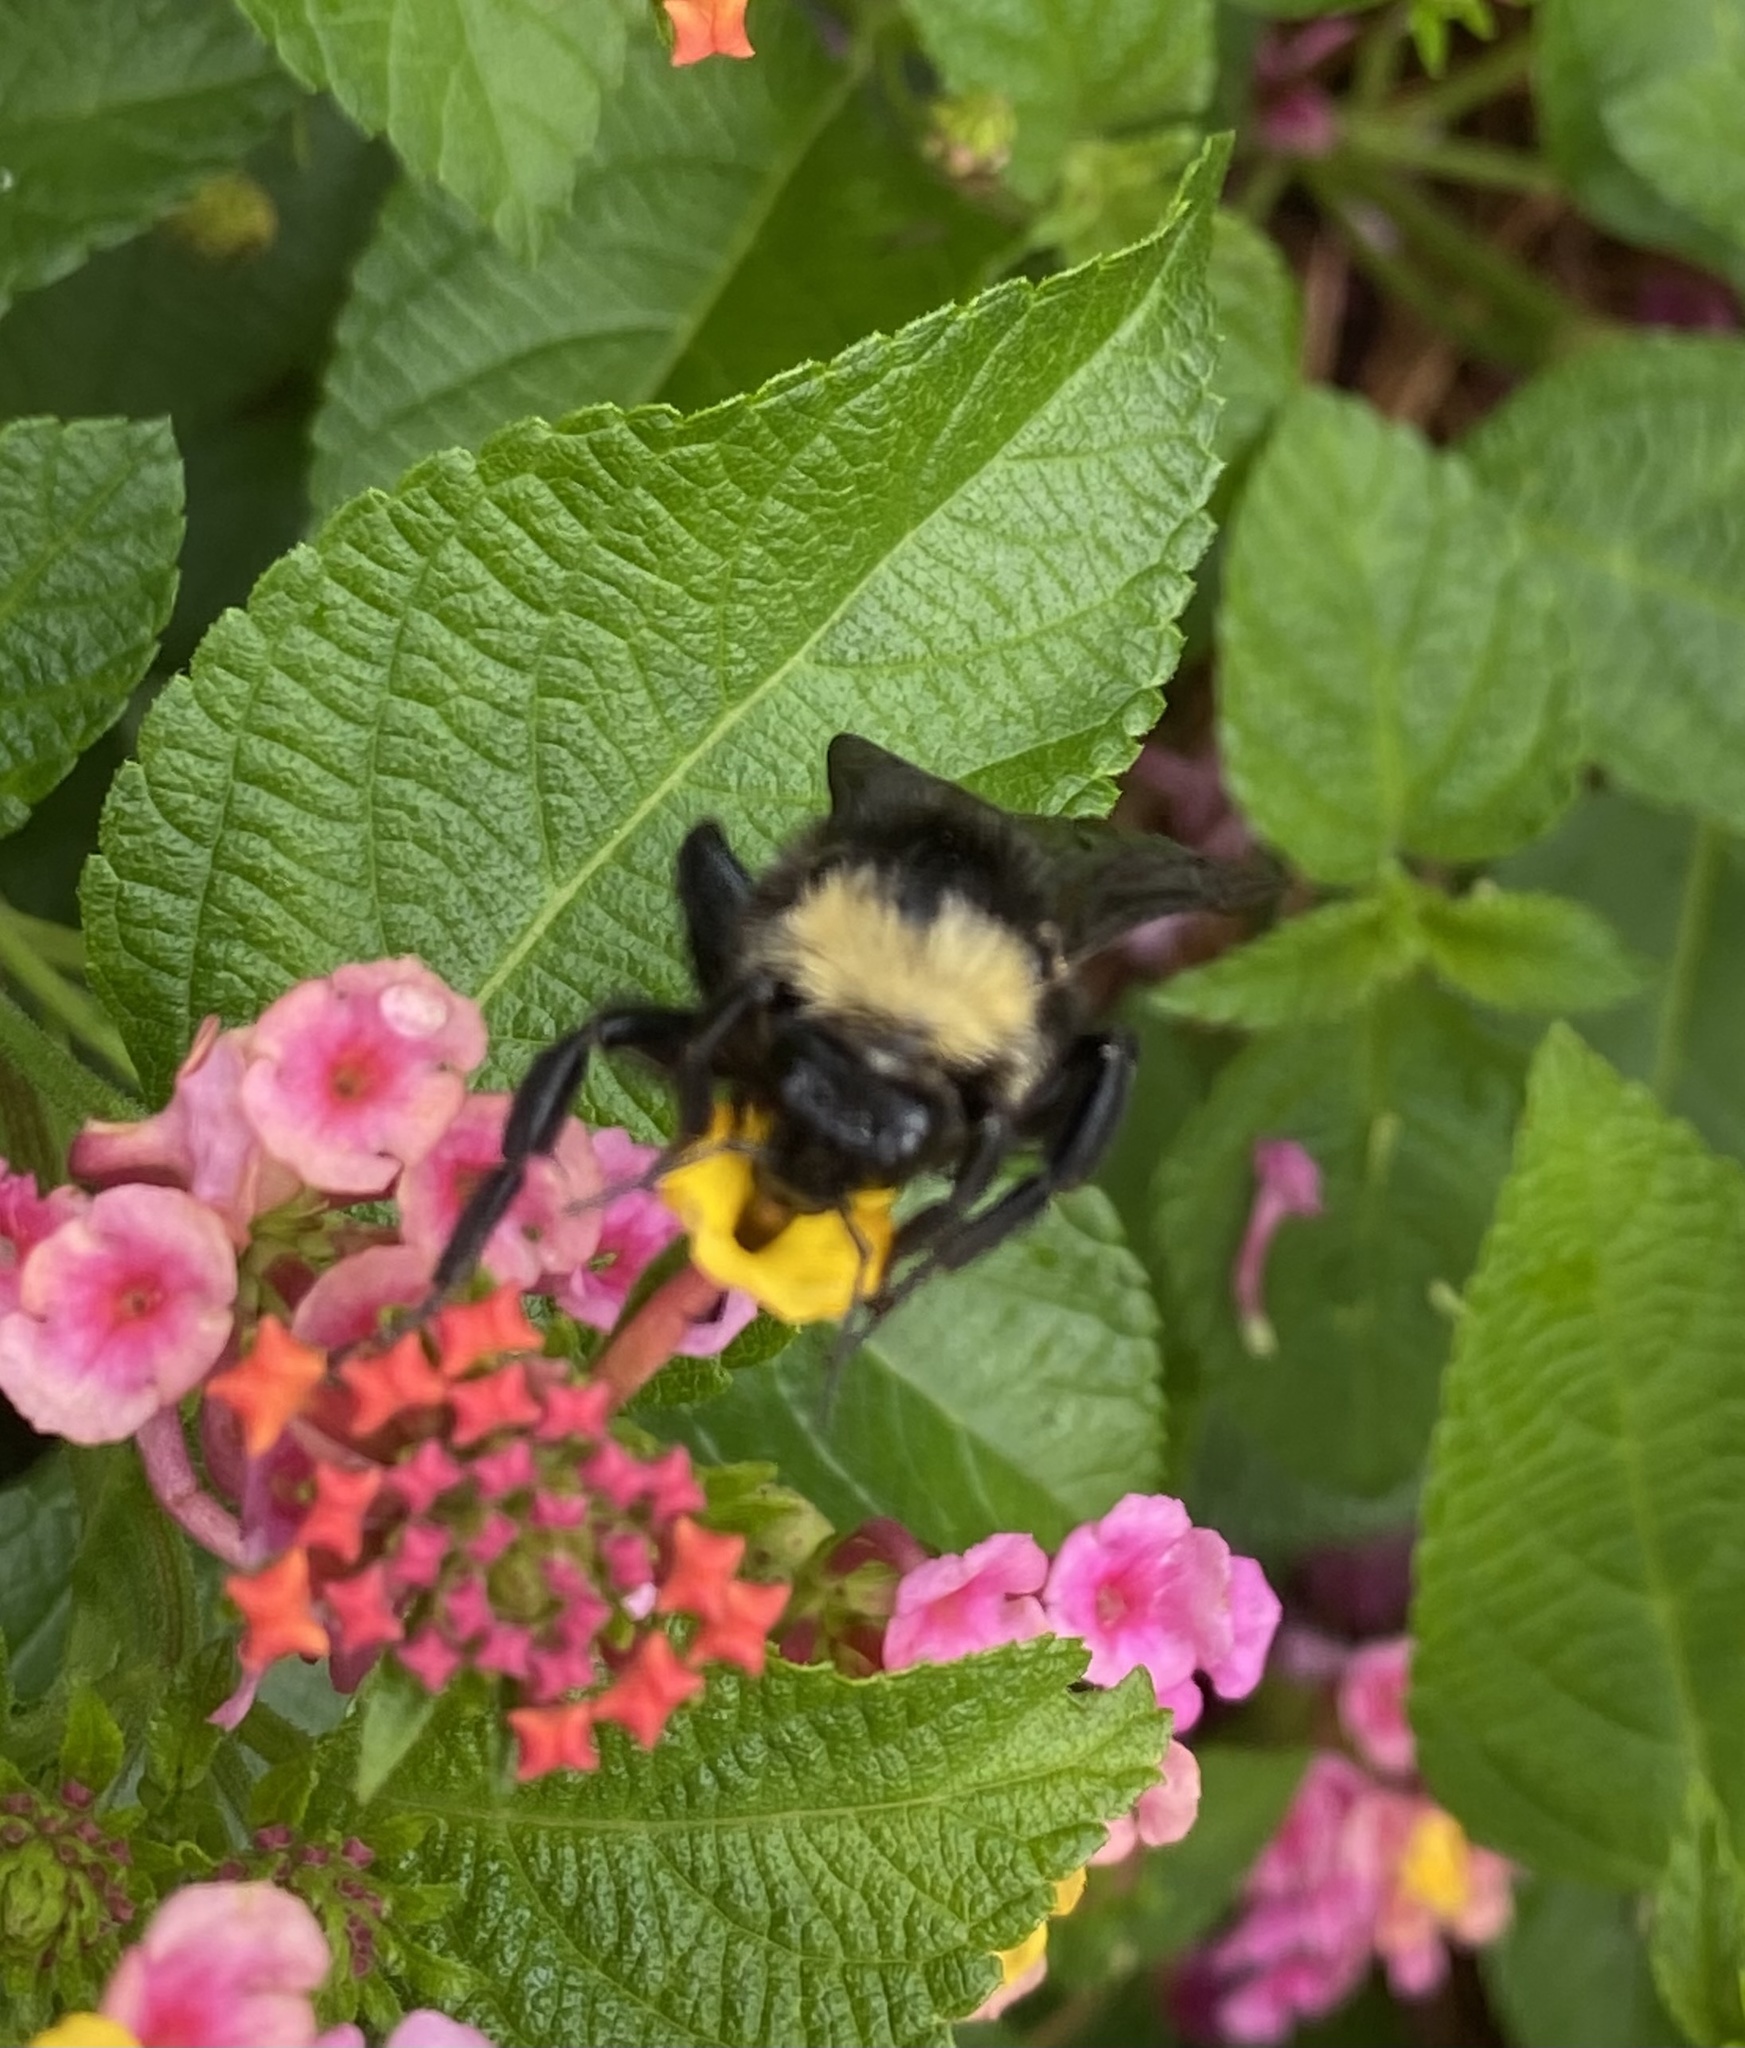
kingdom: Animalia
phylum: Arthropoda
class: Insecta
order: Hymenoptera
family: Apidae
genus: Bombus
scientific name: Bombus pensylvanicus
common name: Bumble bee
